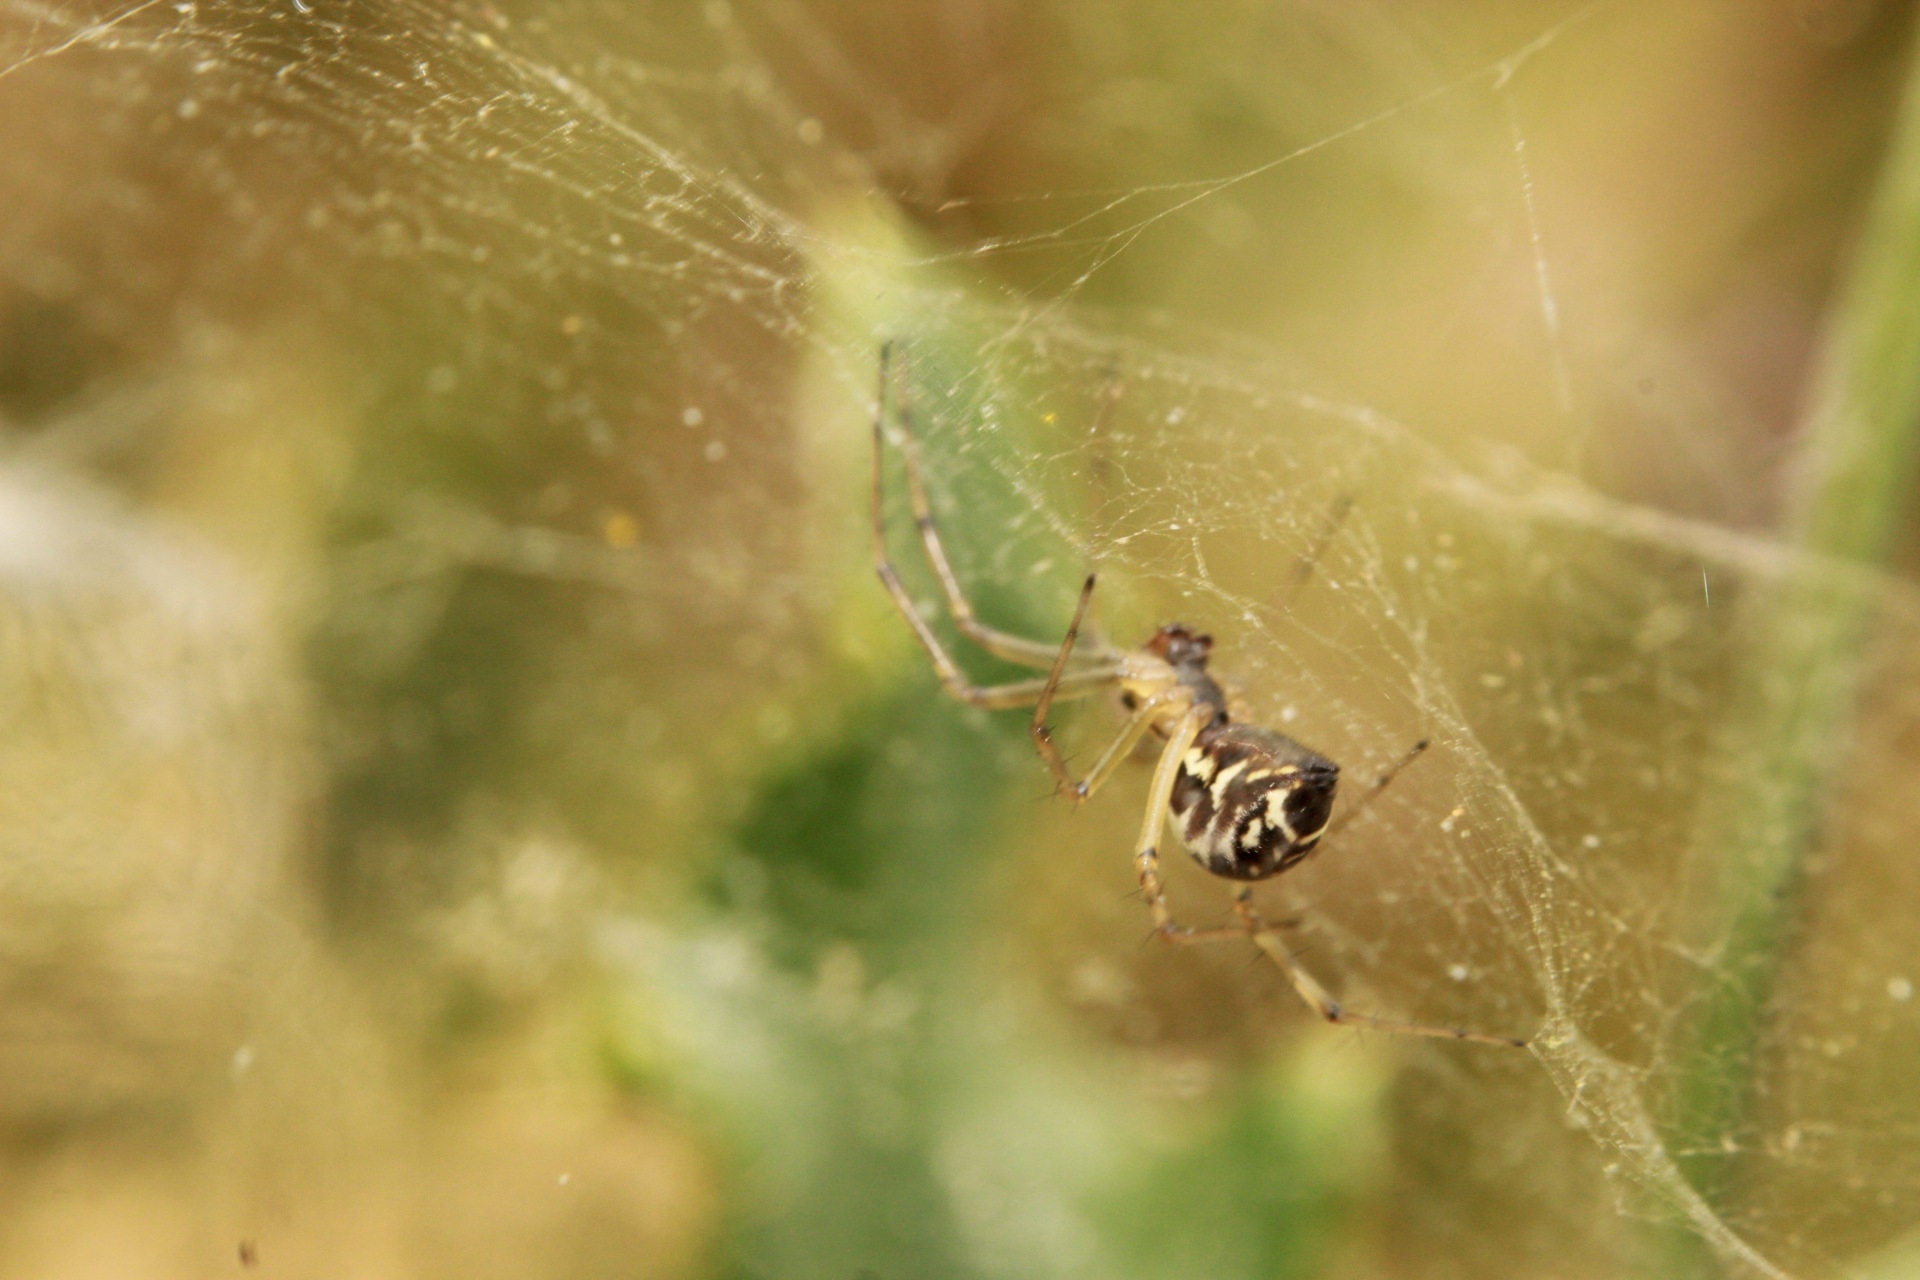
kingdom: Animalia
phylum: Arthropoda
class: Arachnida
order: Araneae
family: Linyphiidae
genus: Linyphia
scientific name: Linyphia triangularis
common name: Money spider
